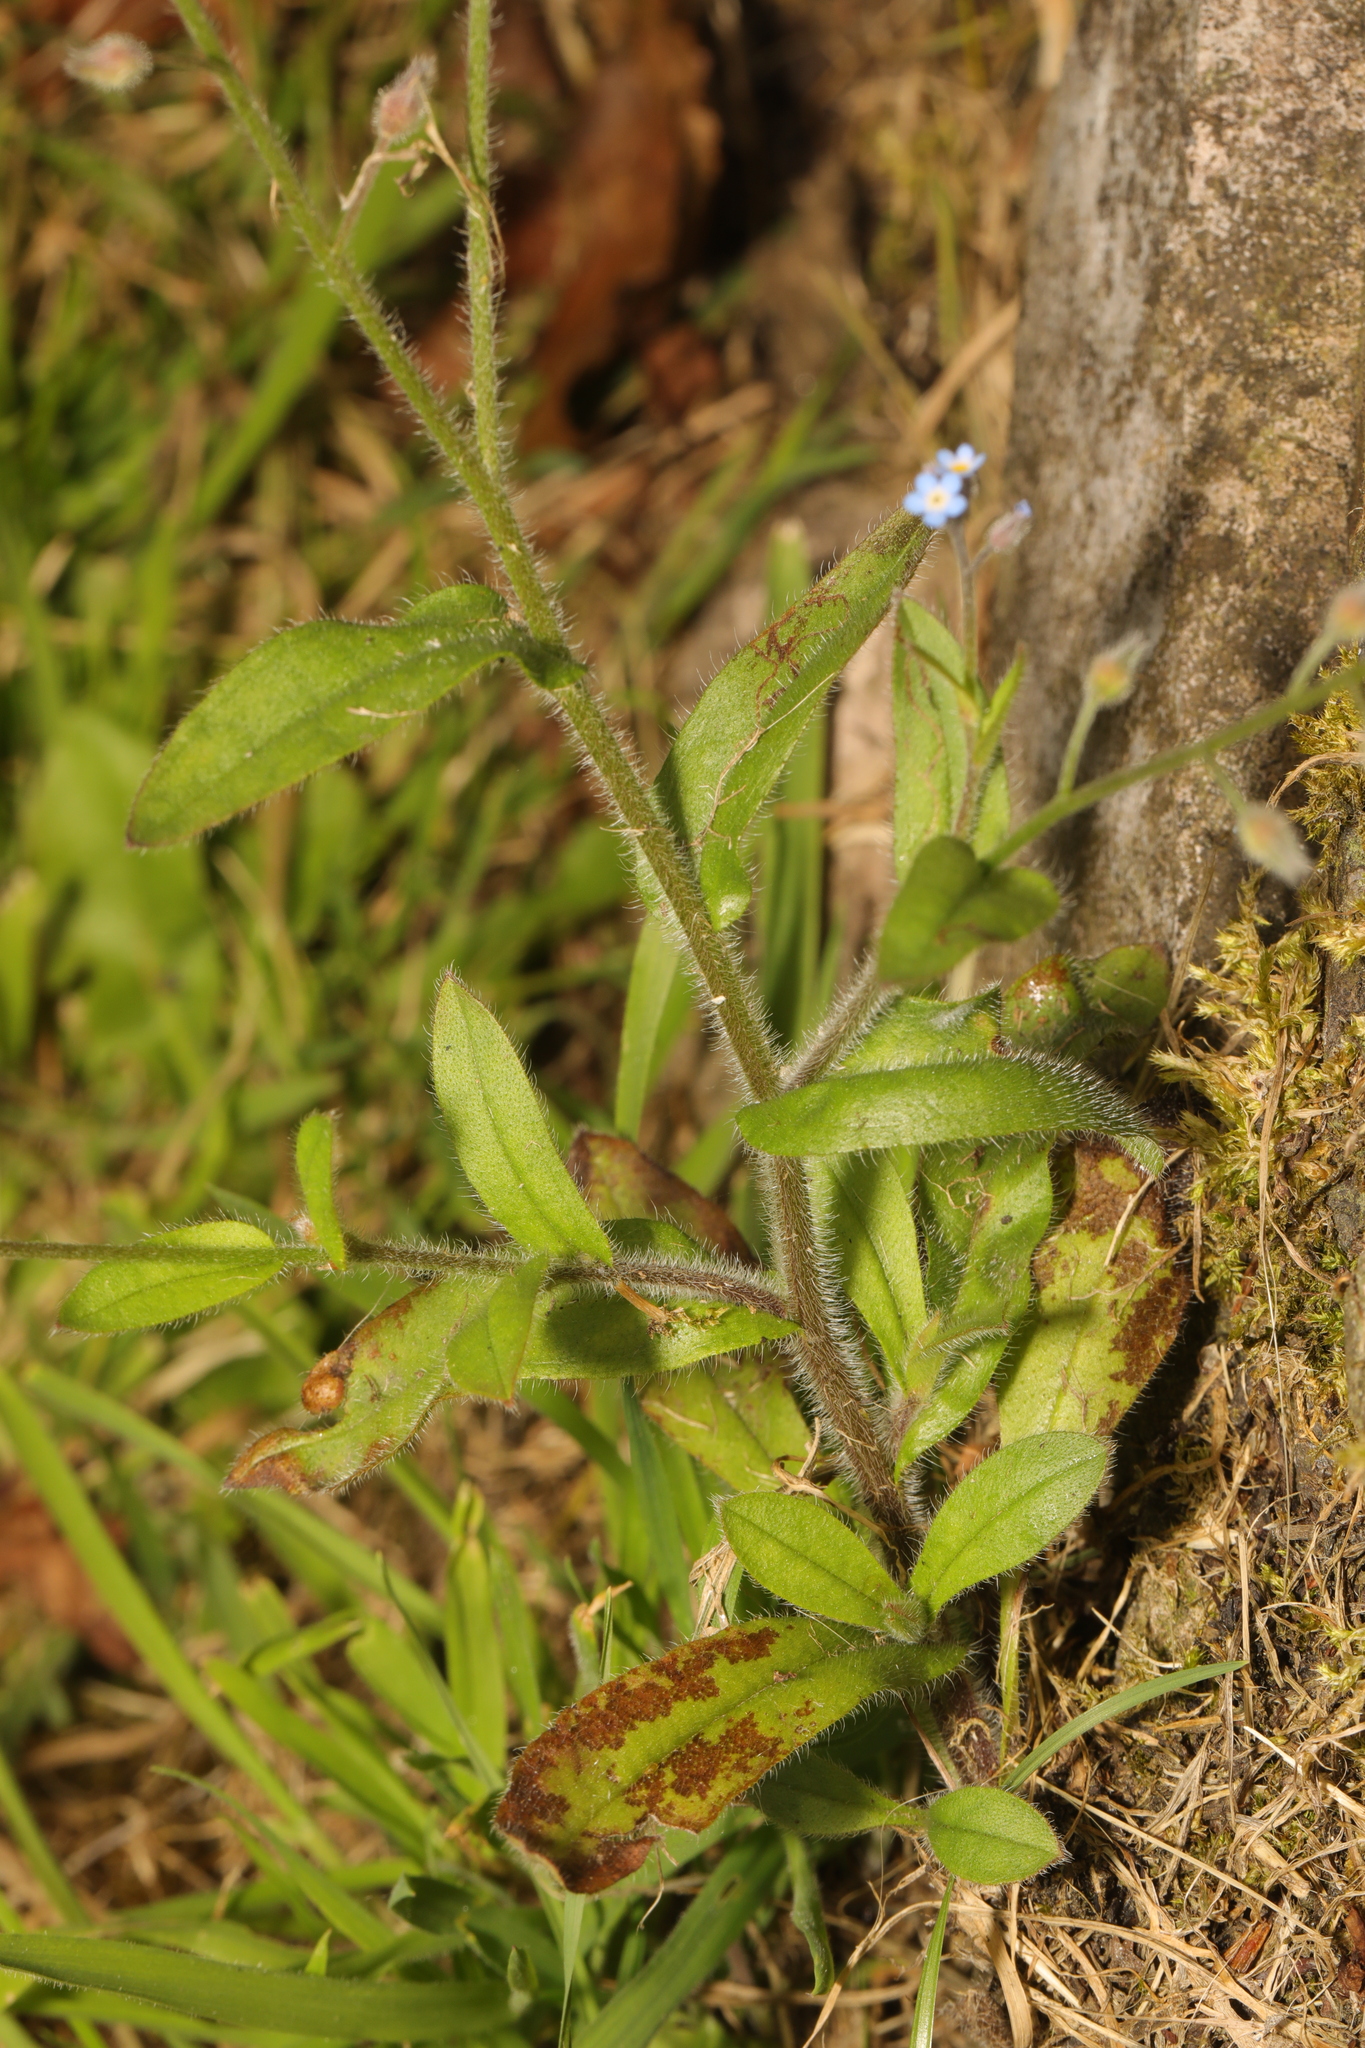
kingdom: Plantae
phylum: Tracheophyta
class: Magnoliopsida
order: Boraginales
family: Boraginaceae
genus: Myosotis
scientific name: Myosotis arvensis
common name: Field forget-me-not
